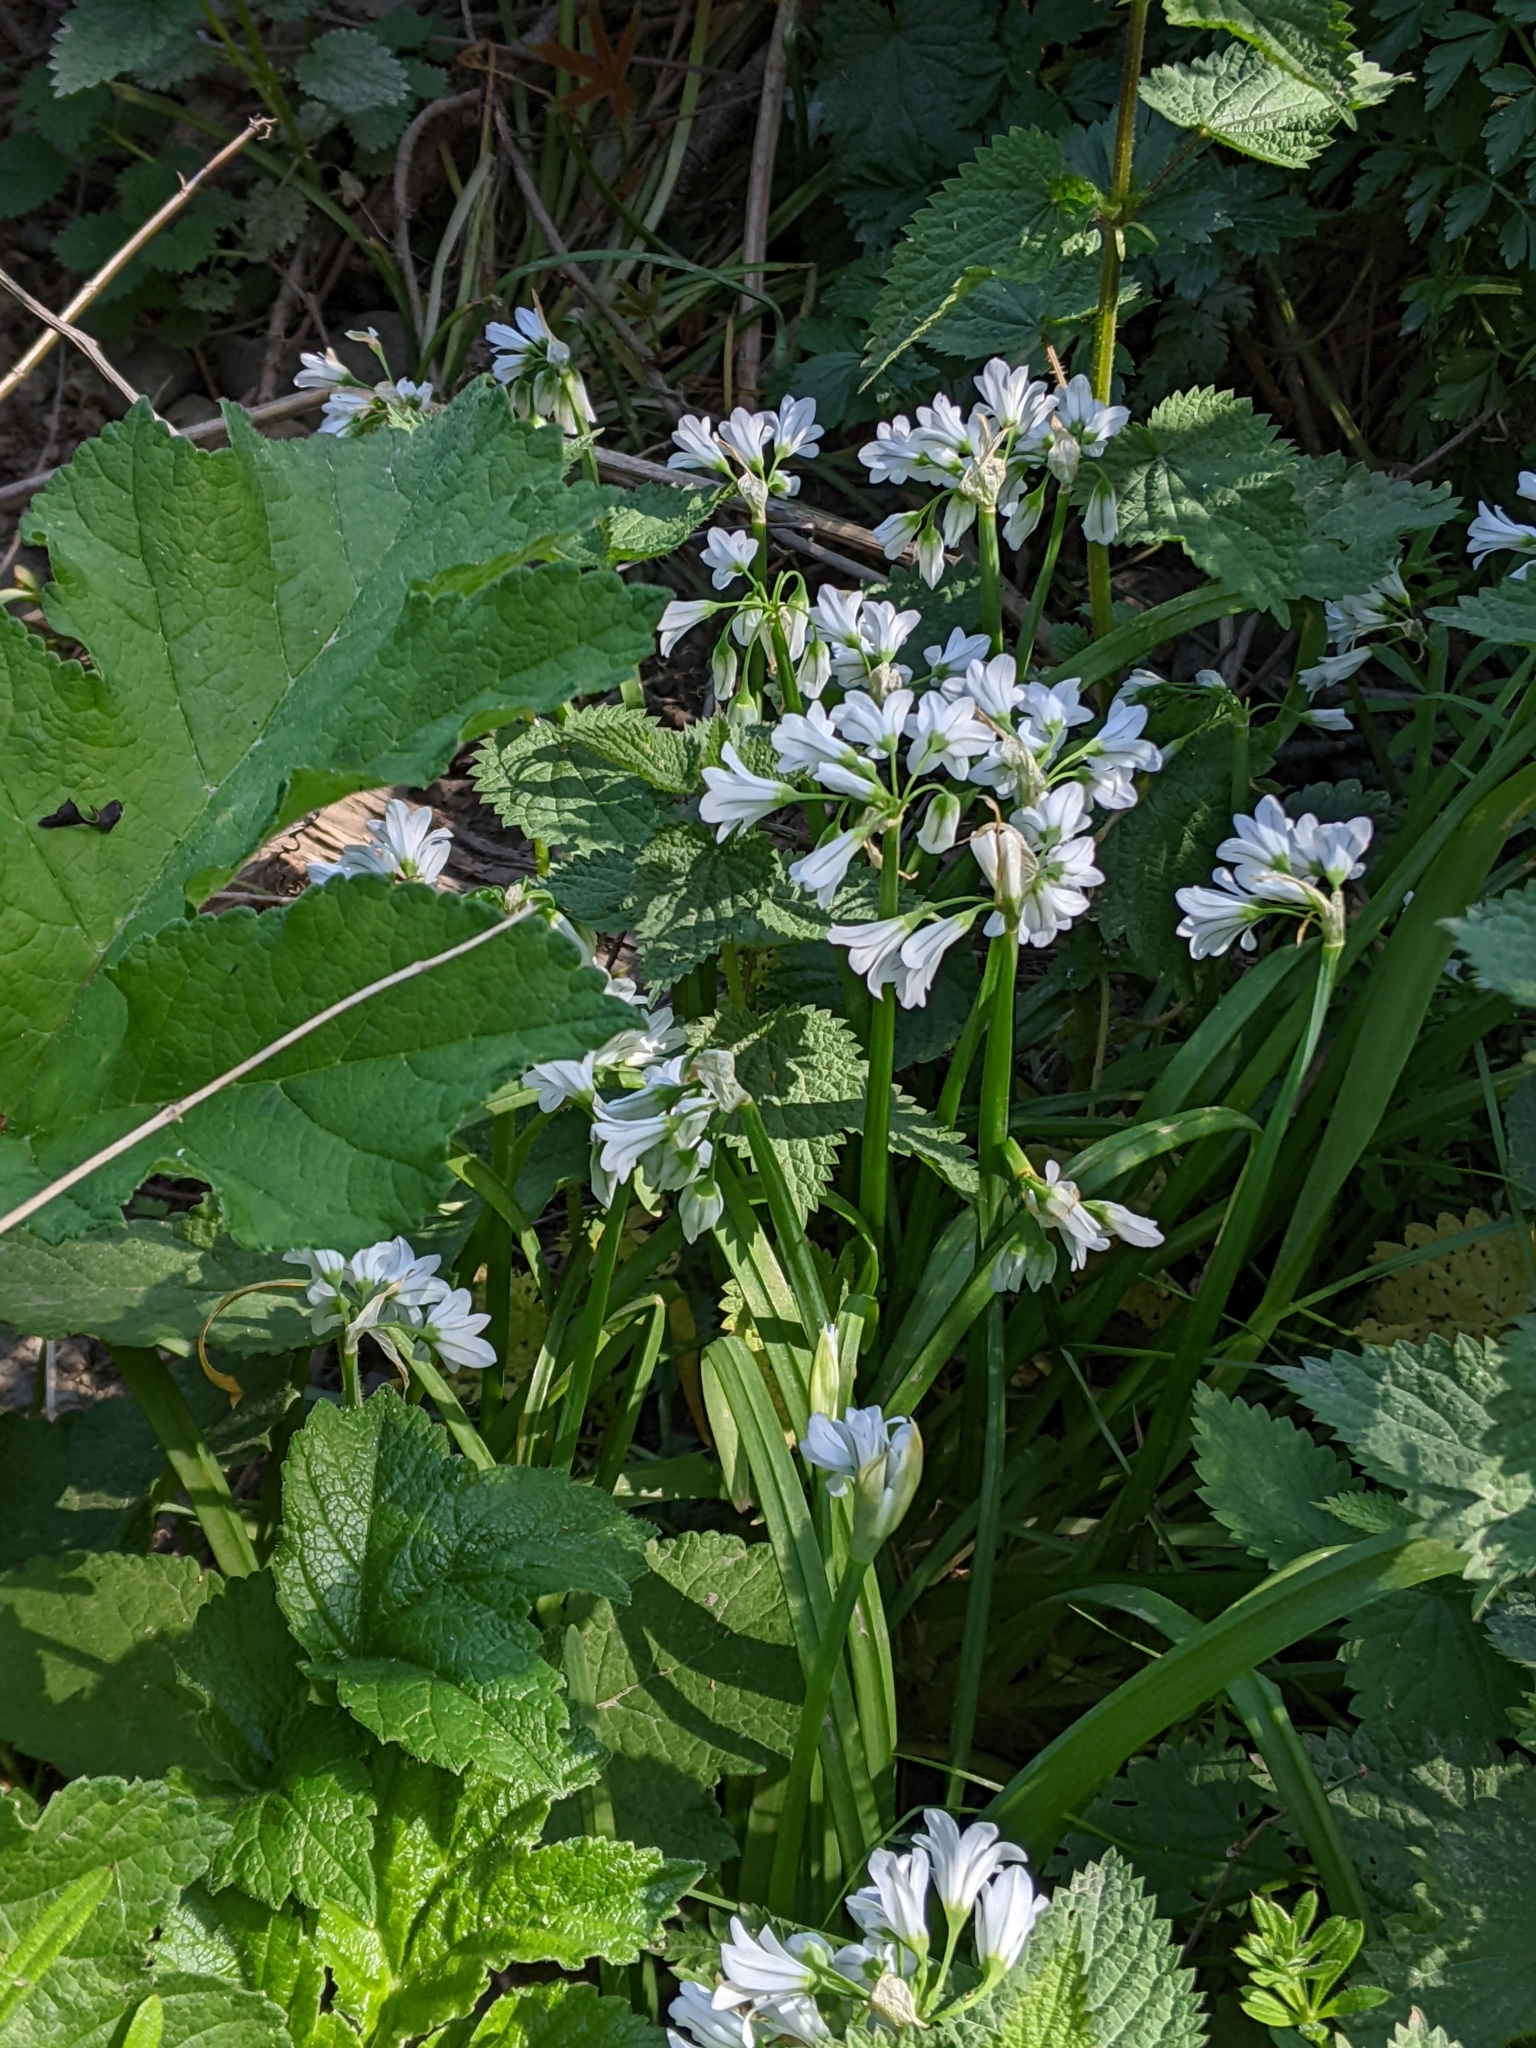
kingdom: Plantae
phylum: Tracheophyta
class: Liliopsida
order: Asparagales
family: Amaryllidaceae
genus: Allium
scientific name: Allium triquetrum
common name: Three-cornered garlic
